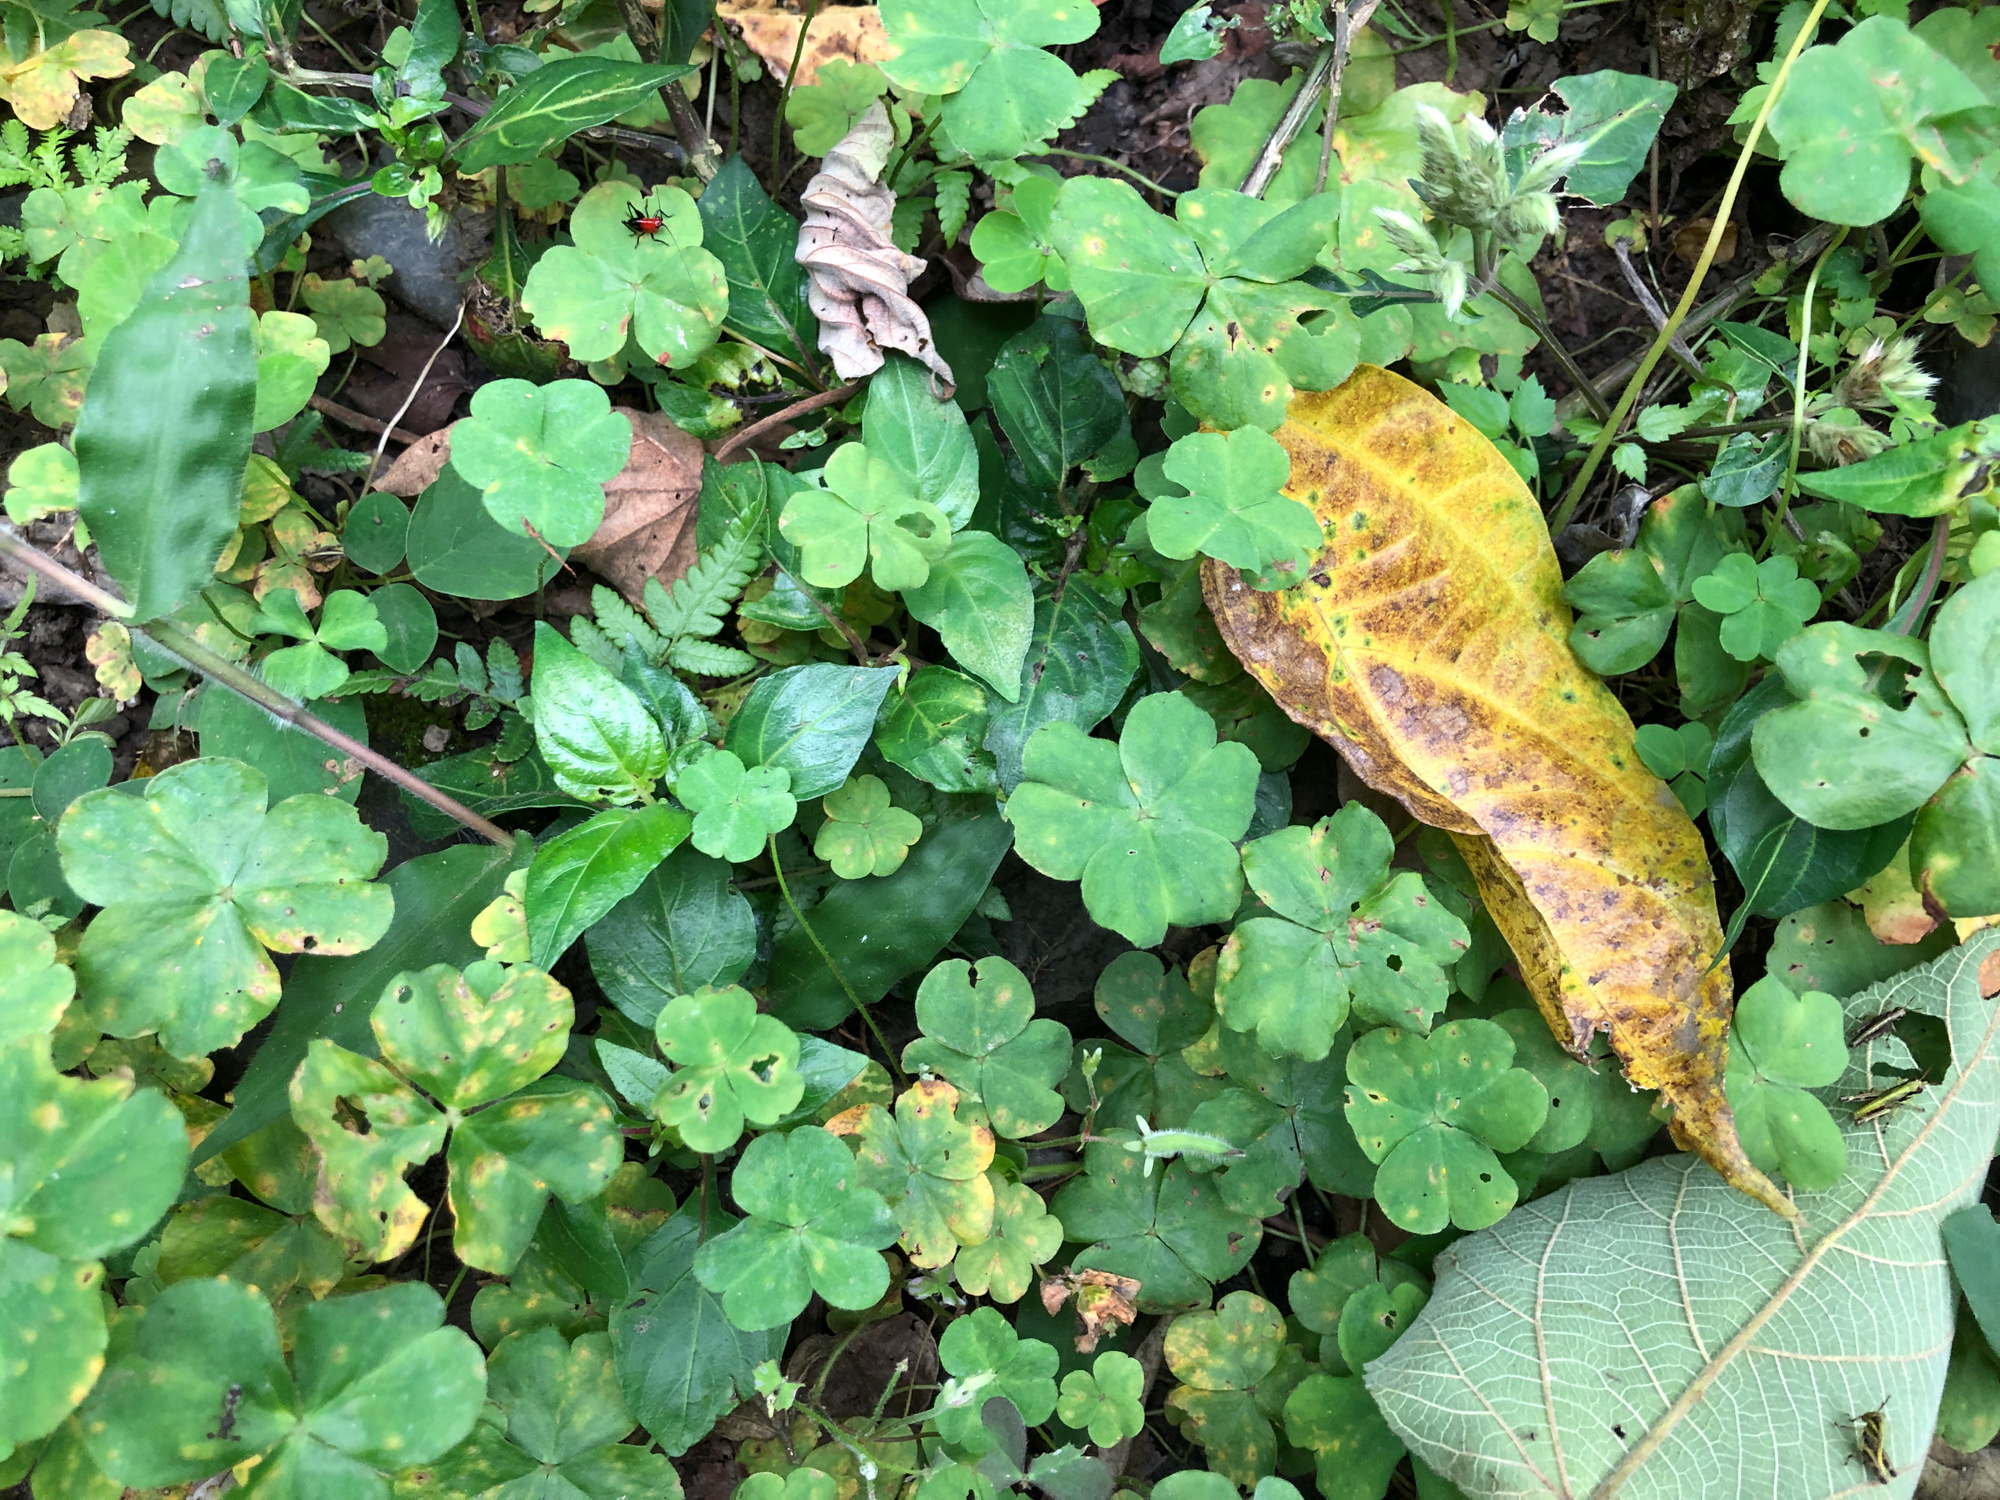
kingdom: Plantae
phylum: Tracheophyta
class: Magnoliopsida
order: Oxalidales
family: Oxalidaceae
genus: Oxalis
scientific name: Oxalis debilis
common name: Large-flowered pink-sorrel
